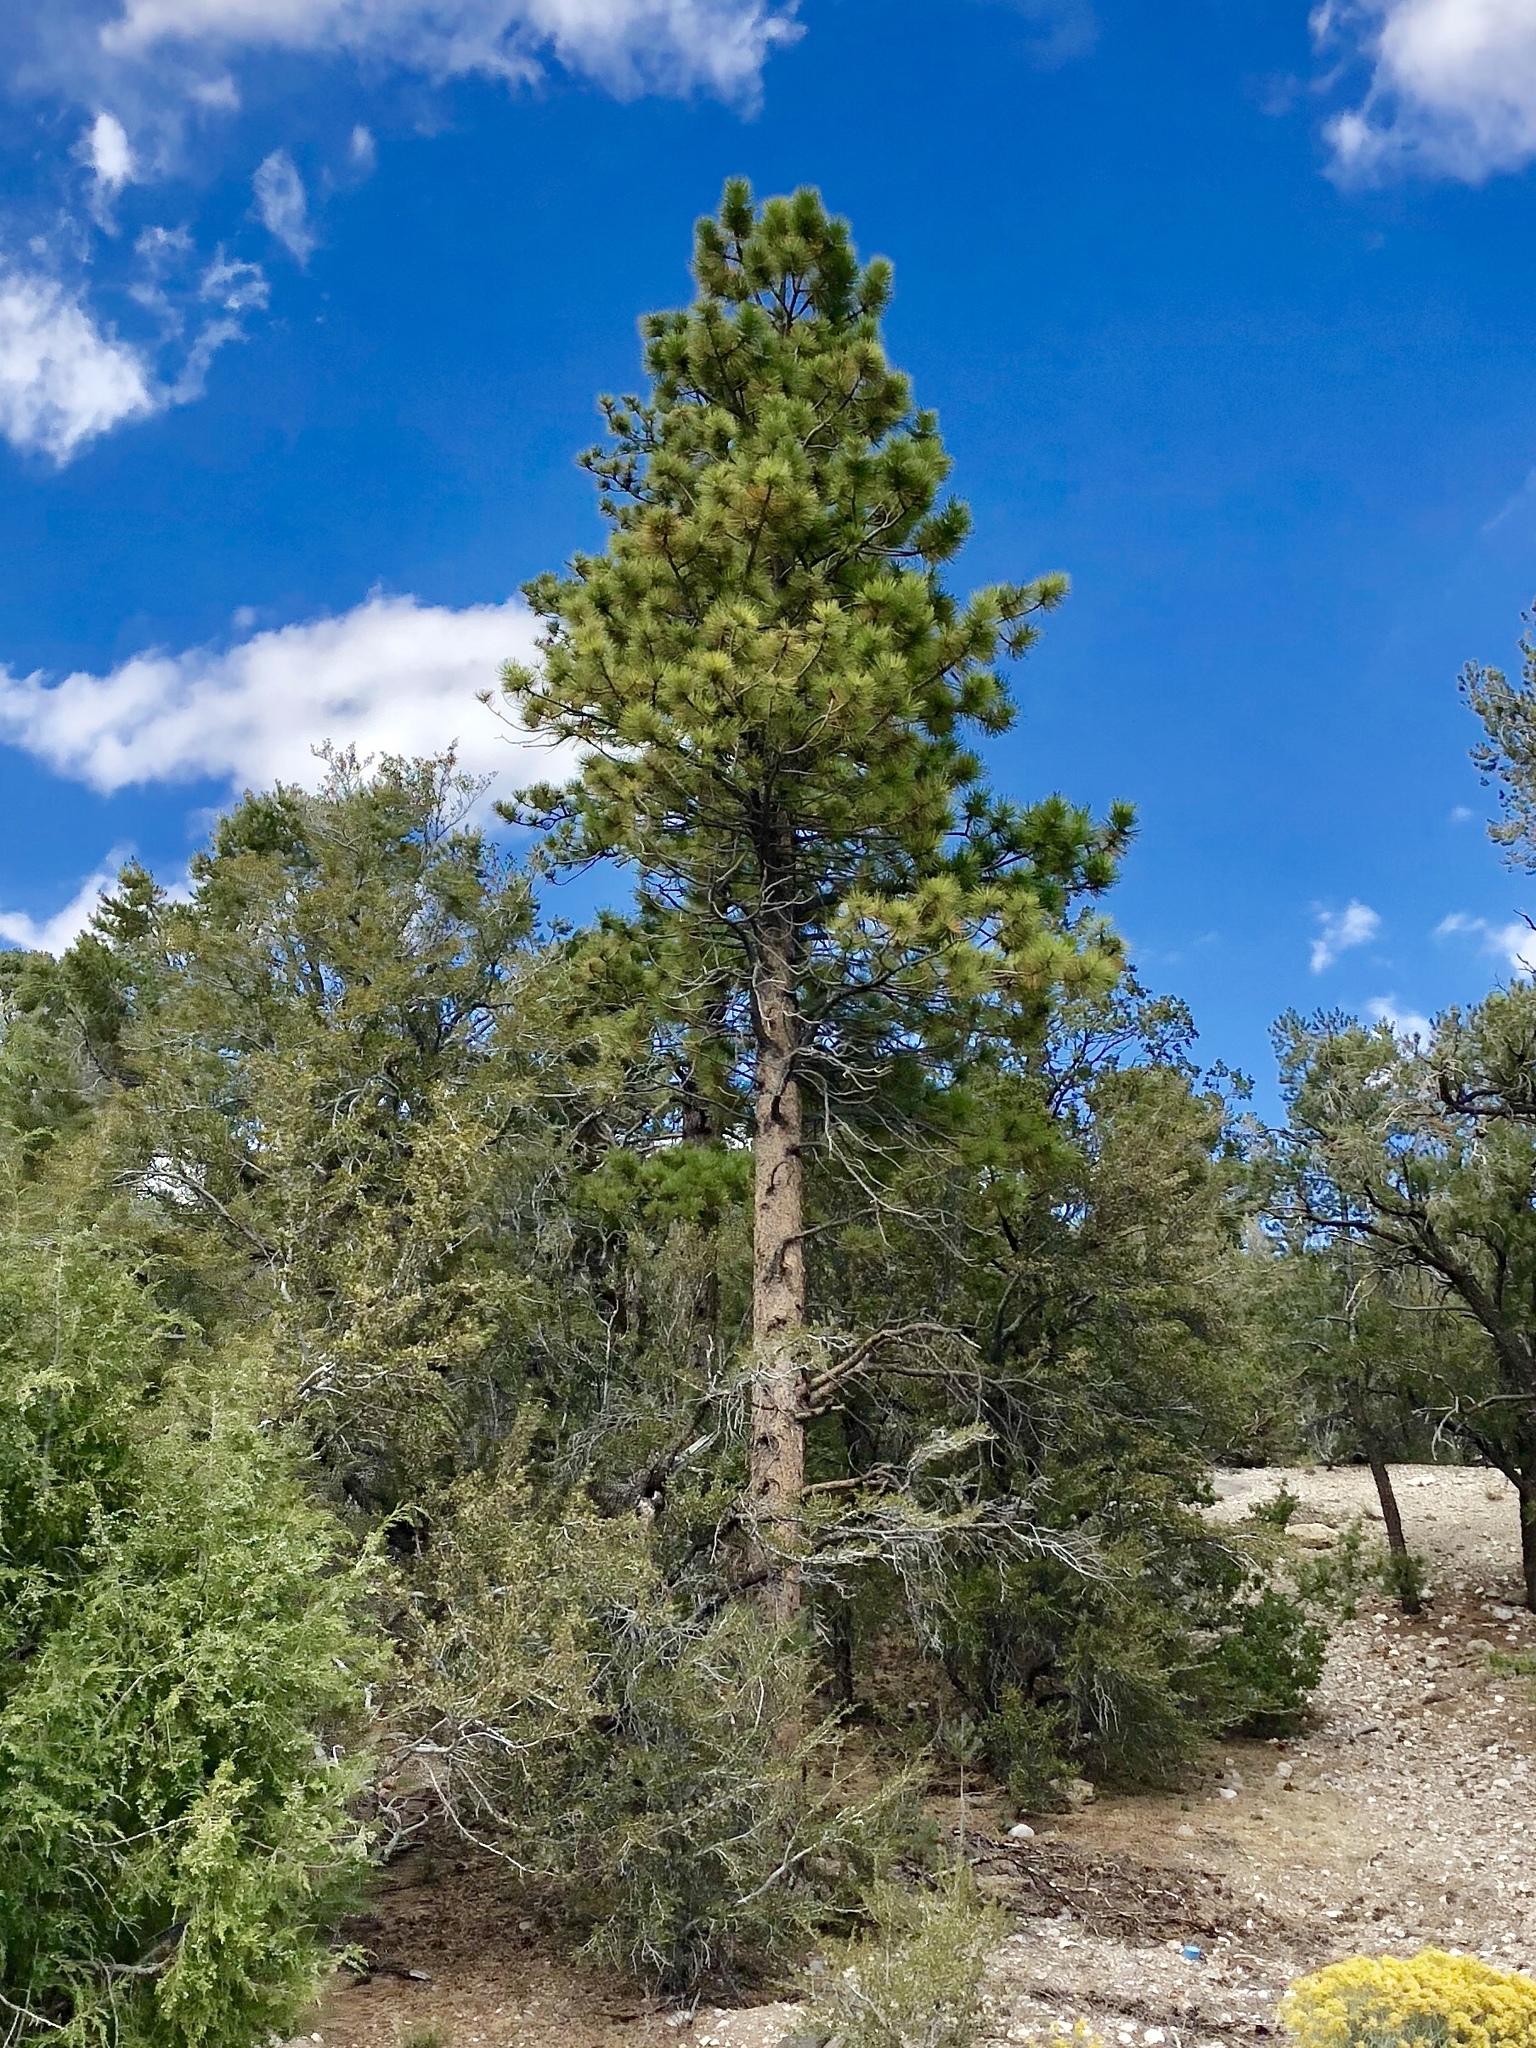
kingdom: Plantae
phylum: Tracheophyta
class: Pinopsida
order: Pinales
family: Pinaceae
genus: Pinus
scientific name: Pinus ponderosa
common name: Western yellow-pine
